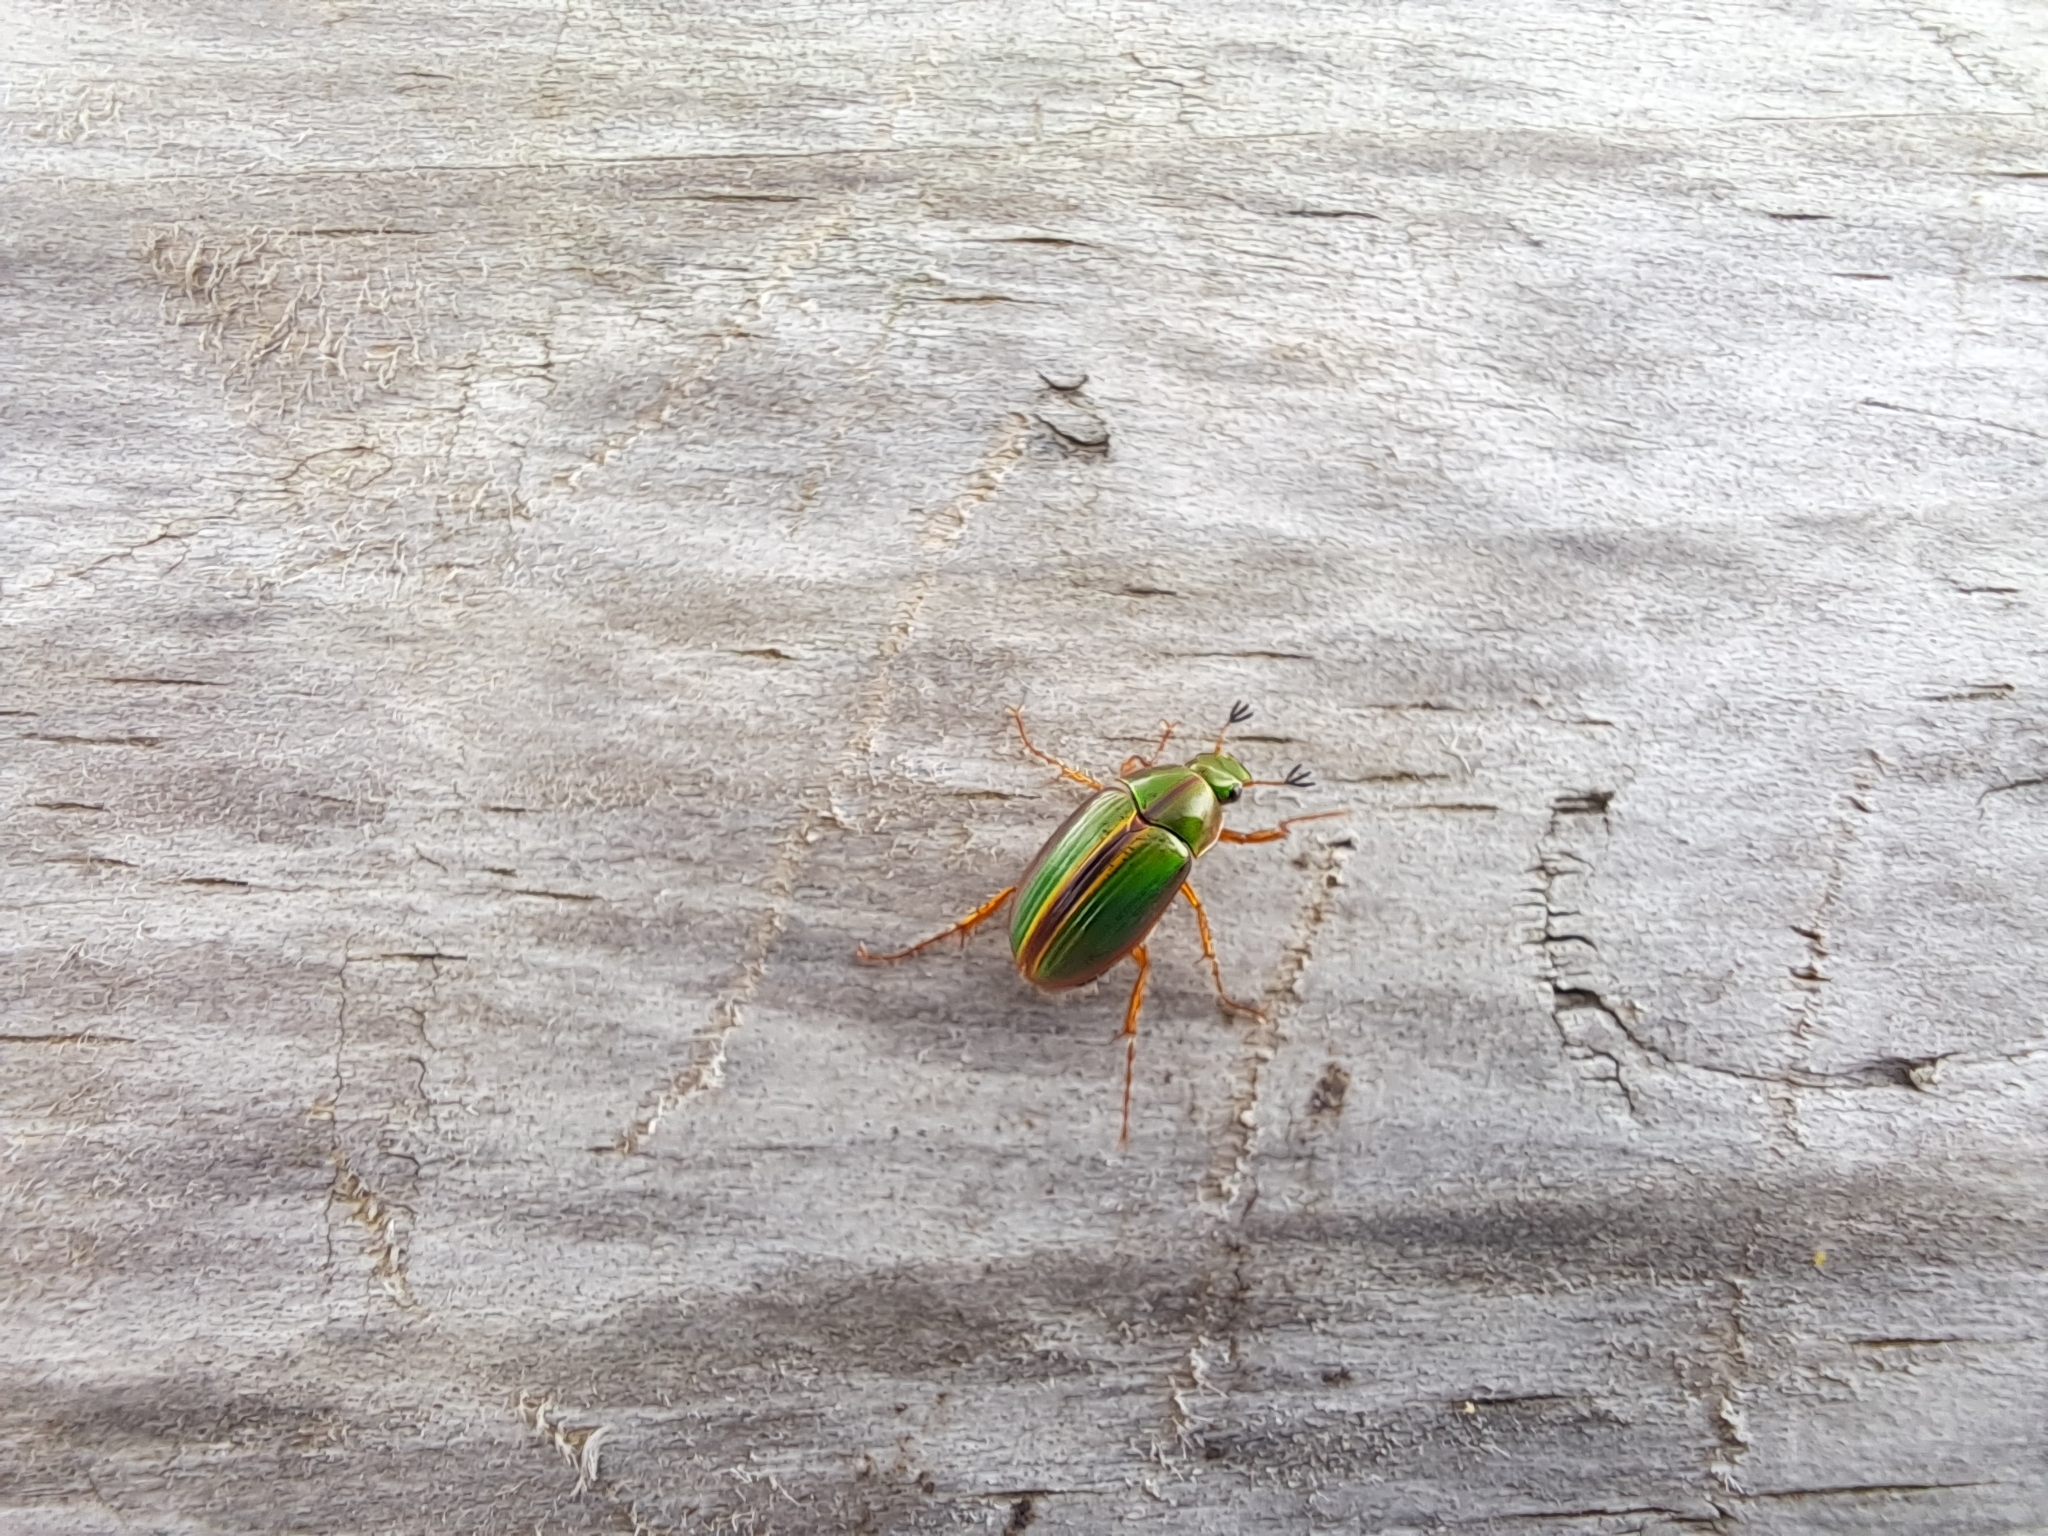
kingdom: Animalia
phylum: Arthropoda
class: Insecta
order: Coleoptera
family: Scarabaeidae
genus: Pyronota
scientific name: Pyronota festiva
